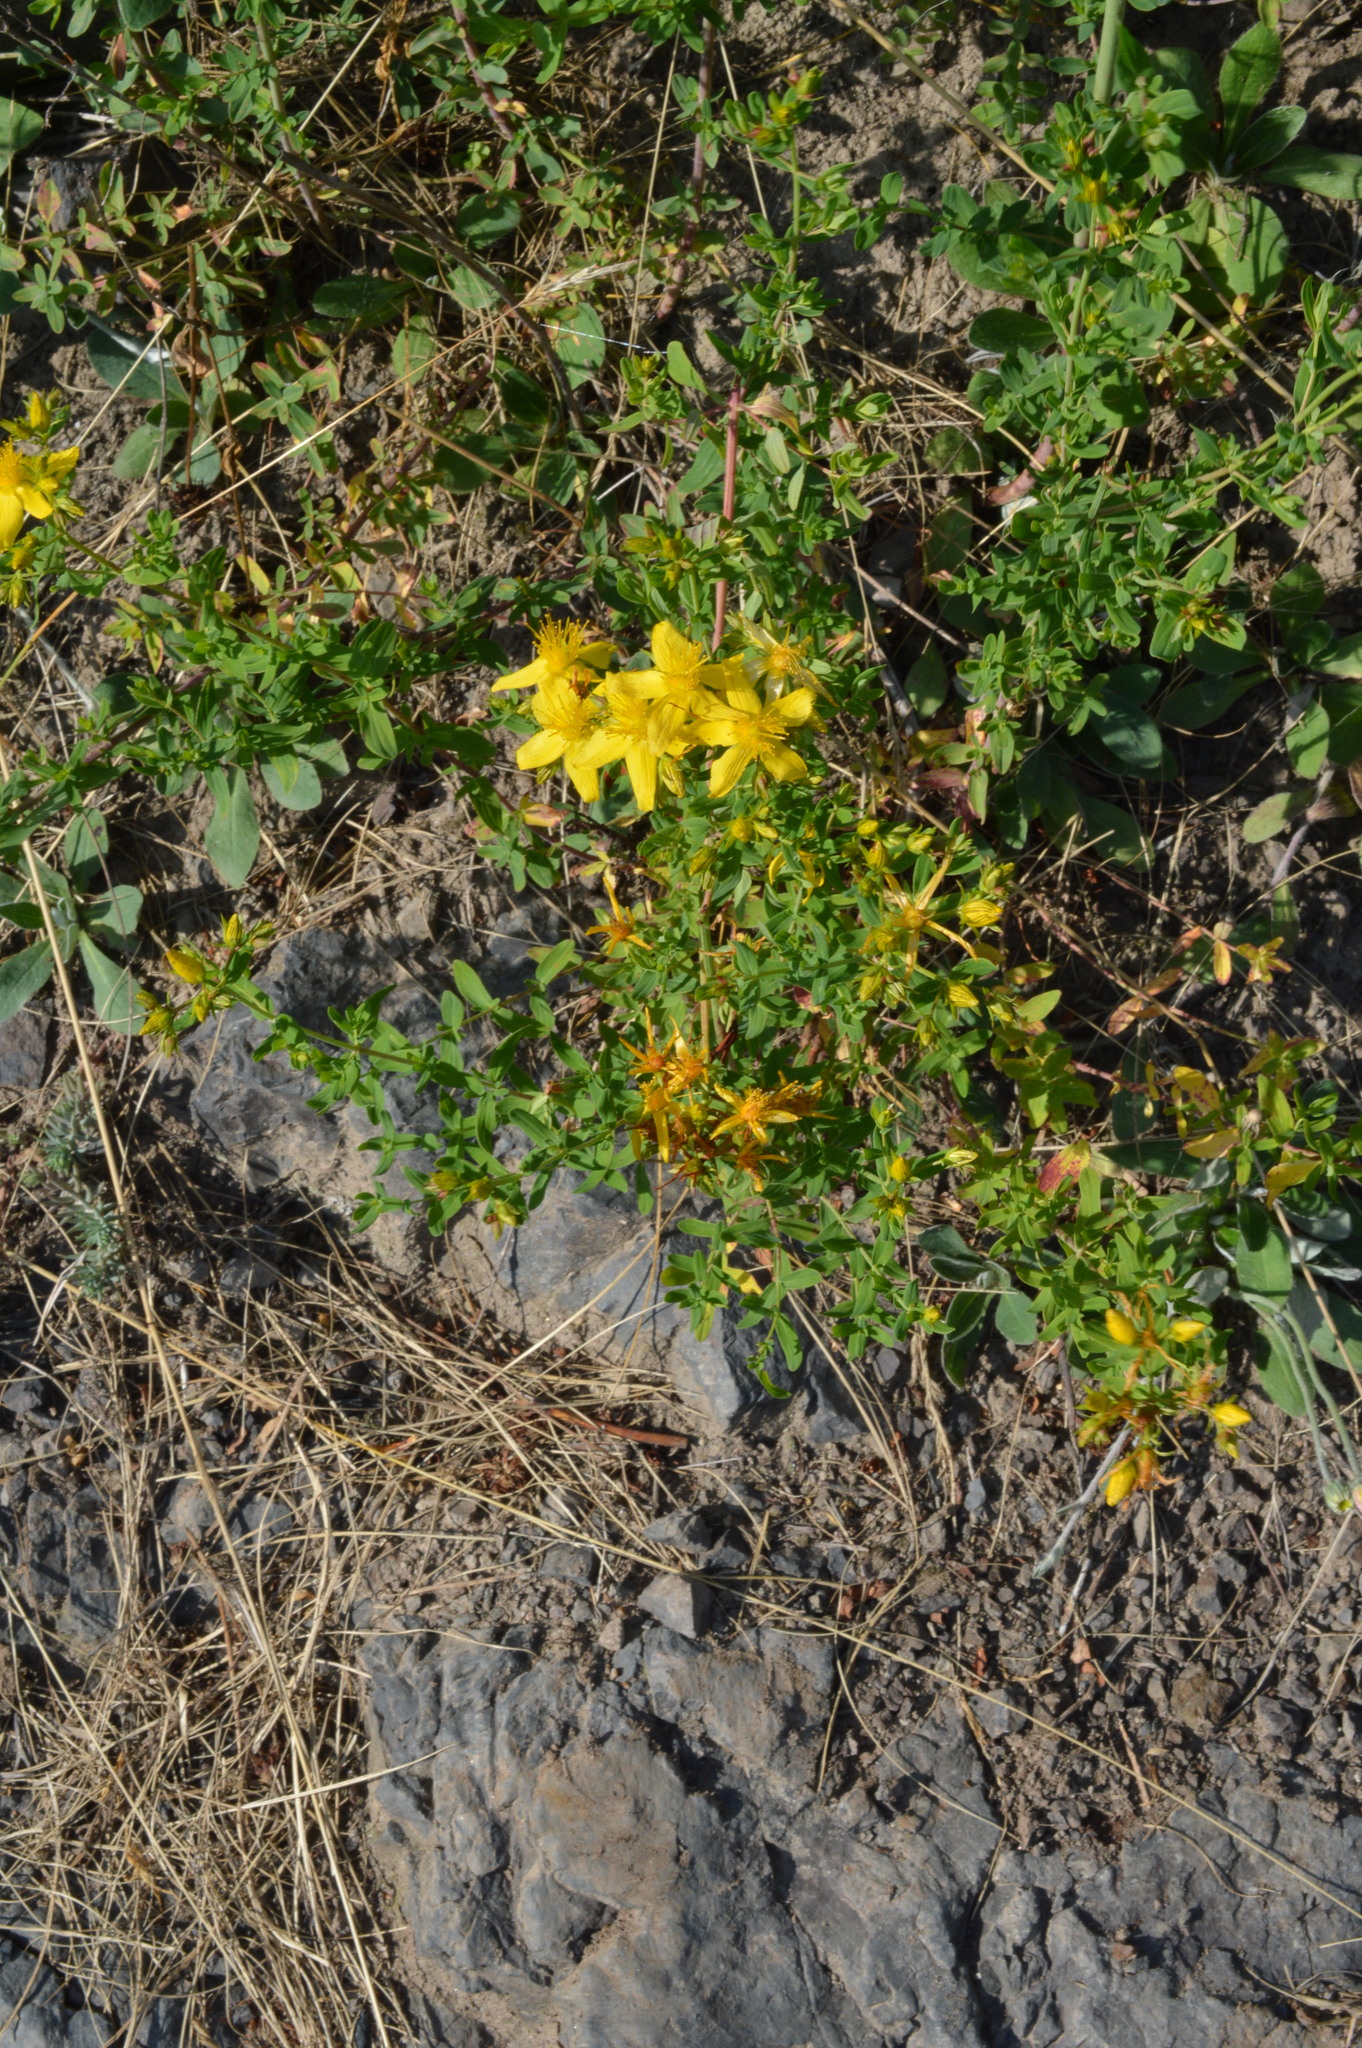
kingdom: Plantae
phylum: Tracheophyta
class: Magnoliopsida
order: Malpighiales
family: Hypericaceae
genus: Hypericum
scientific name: Hypericum perforatum
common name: Common st. johnswort
